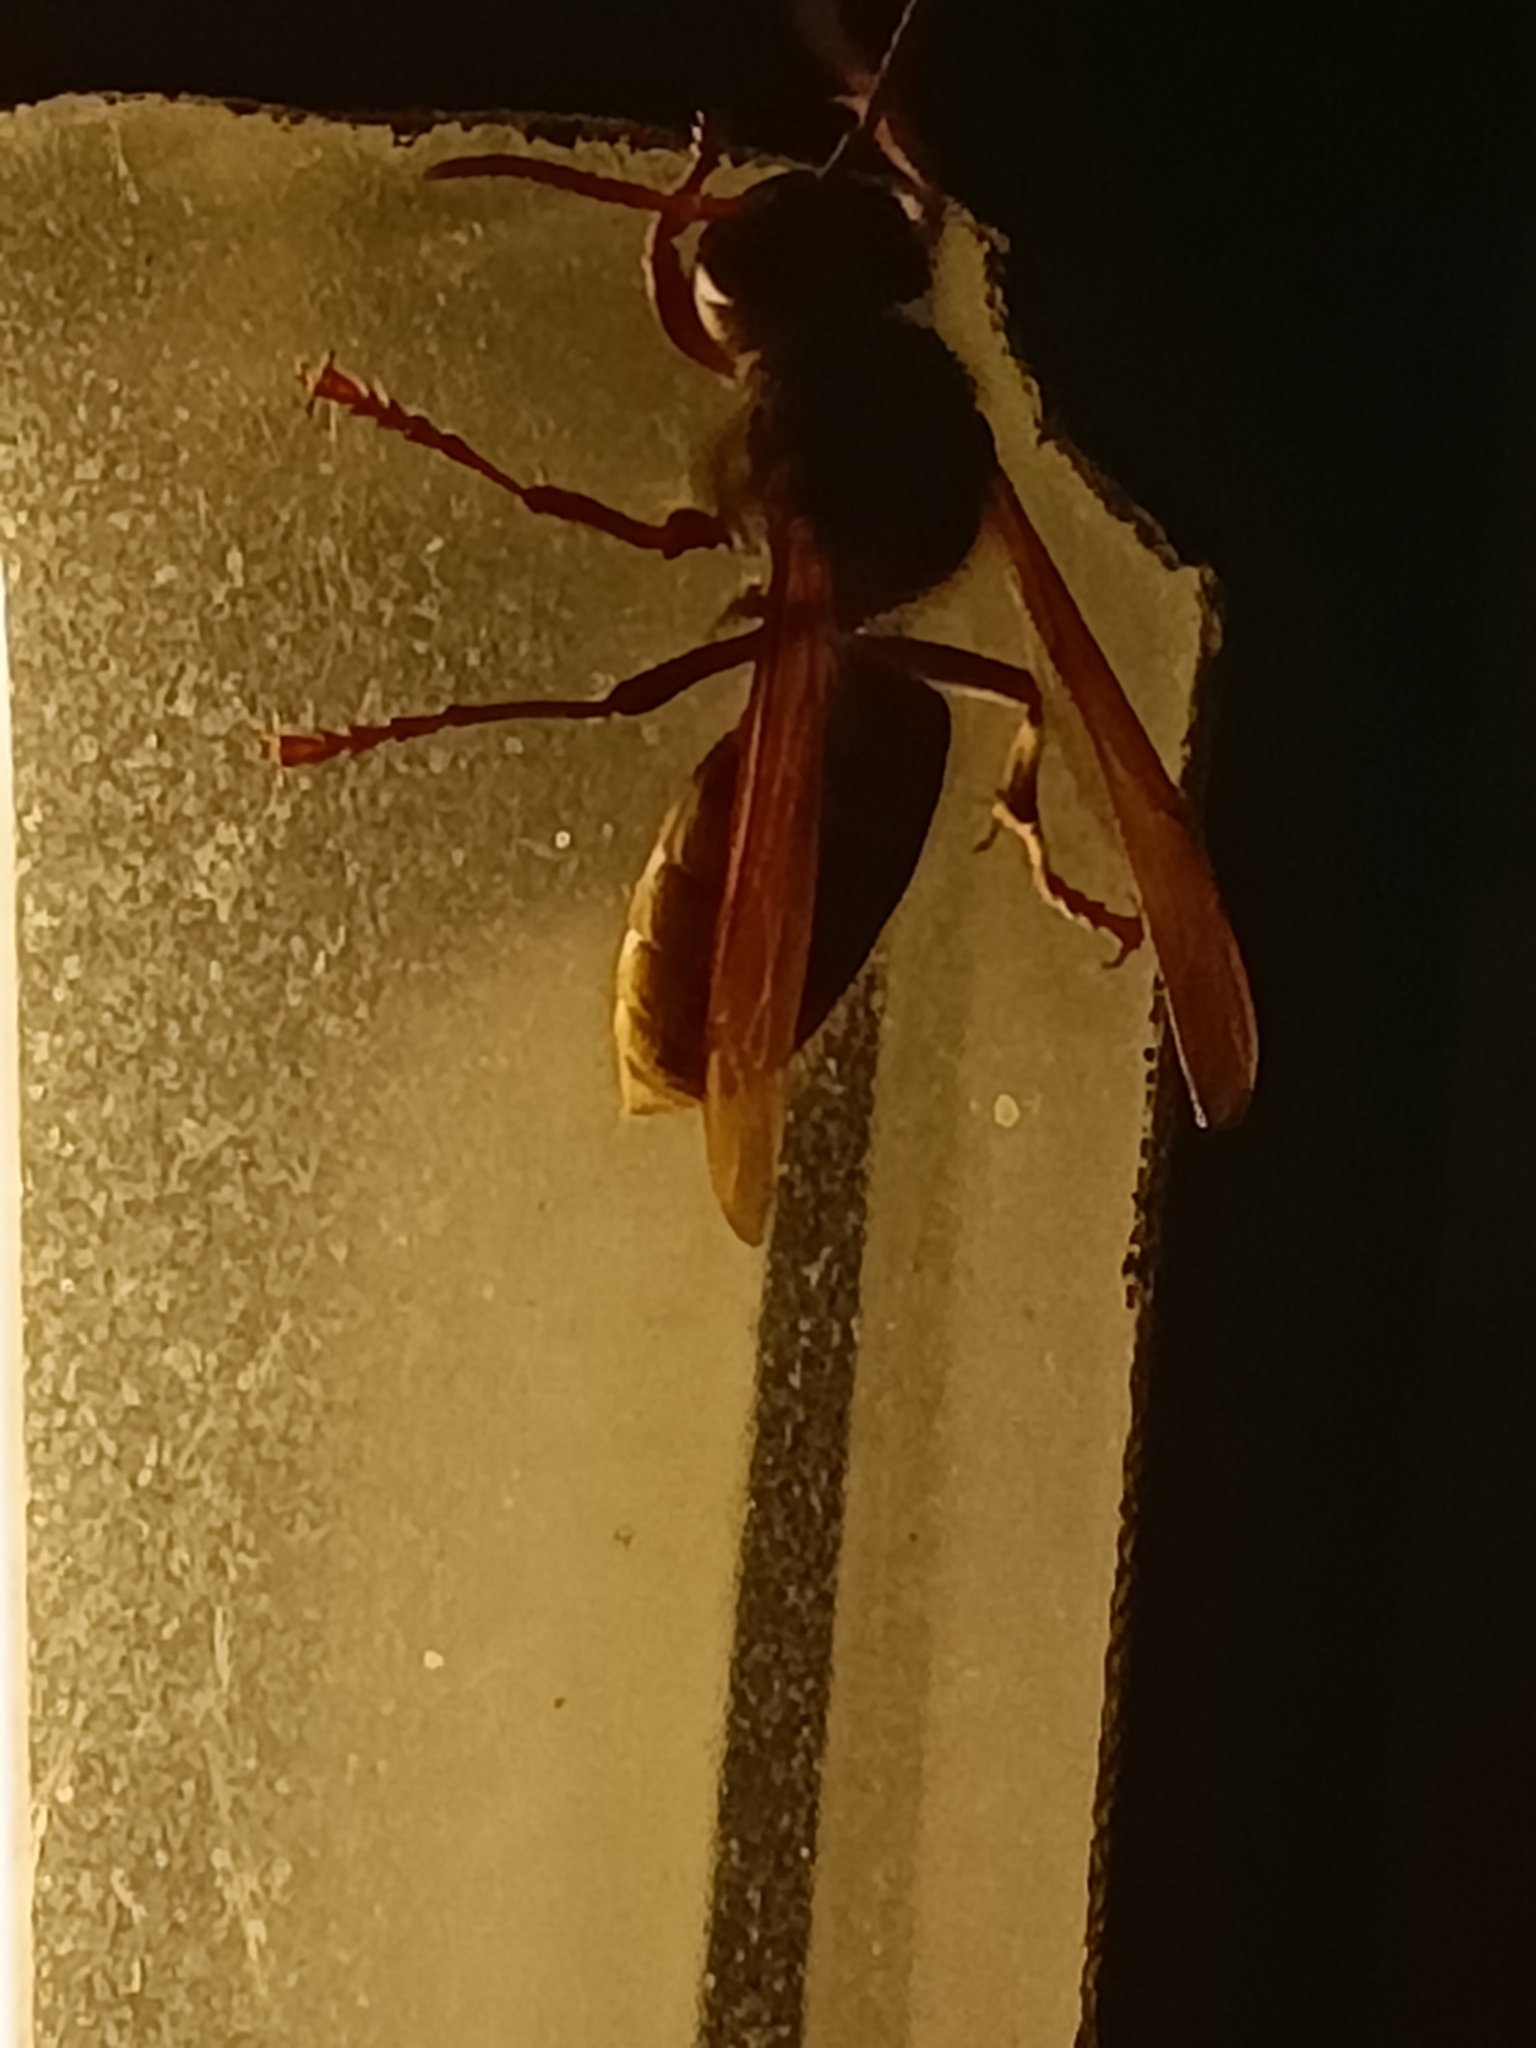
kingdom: Animalia
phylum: Arthropoda
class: Insecta
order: Hymenoptera
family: Vespidae
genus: Vespa
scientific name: Vespa crabro
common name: Hornet
